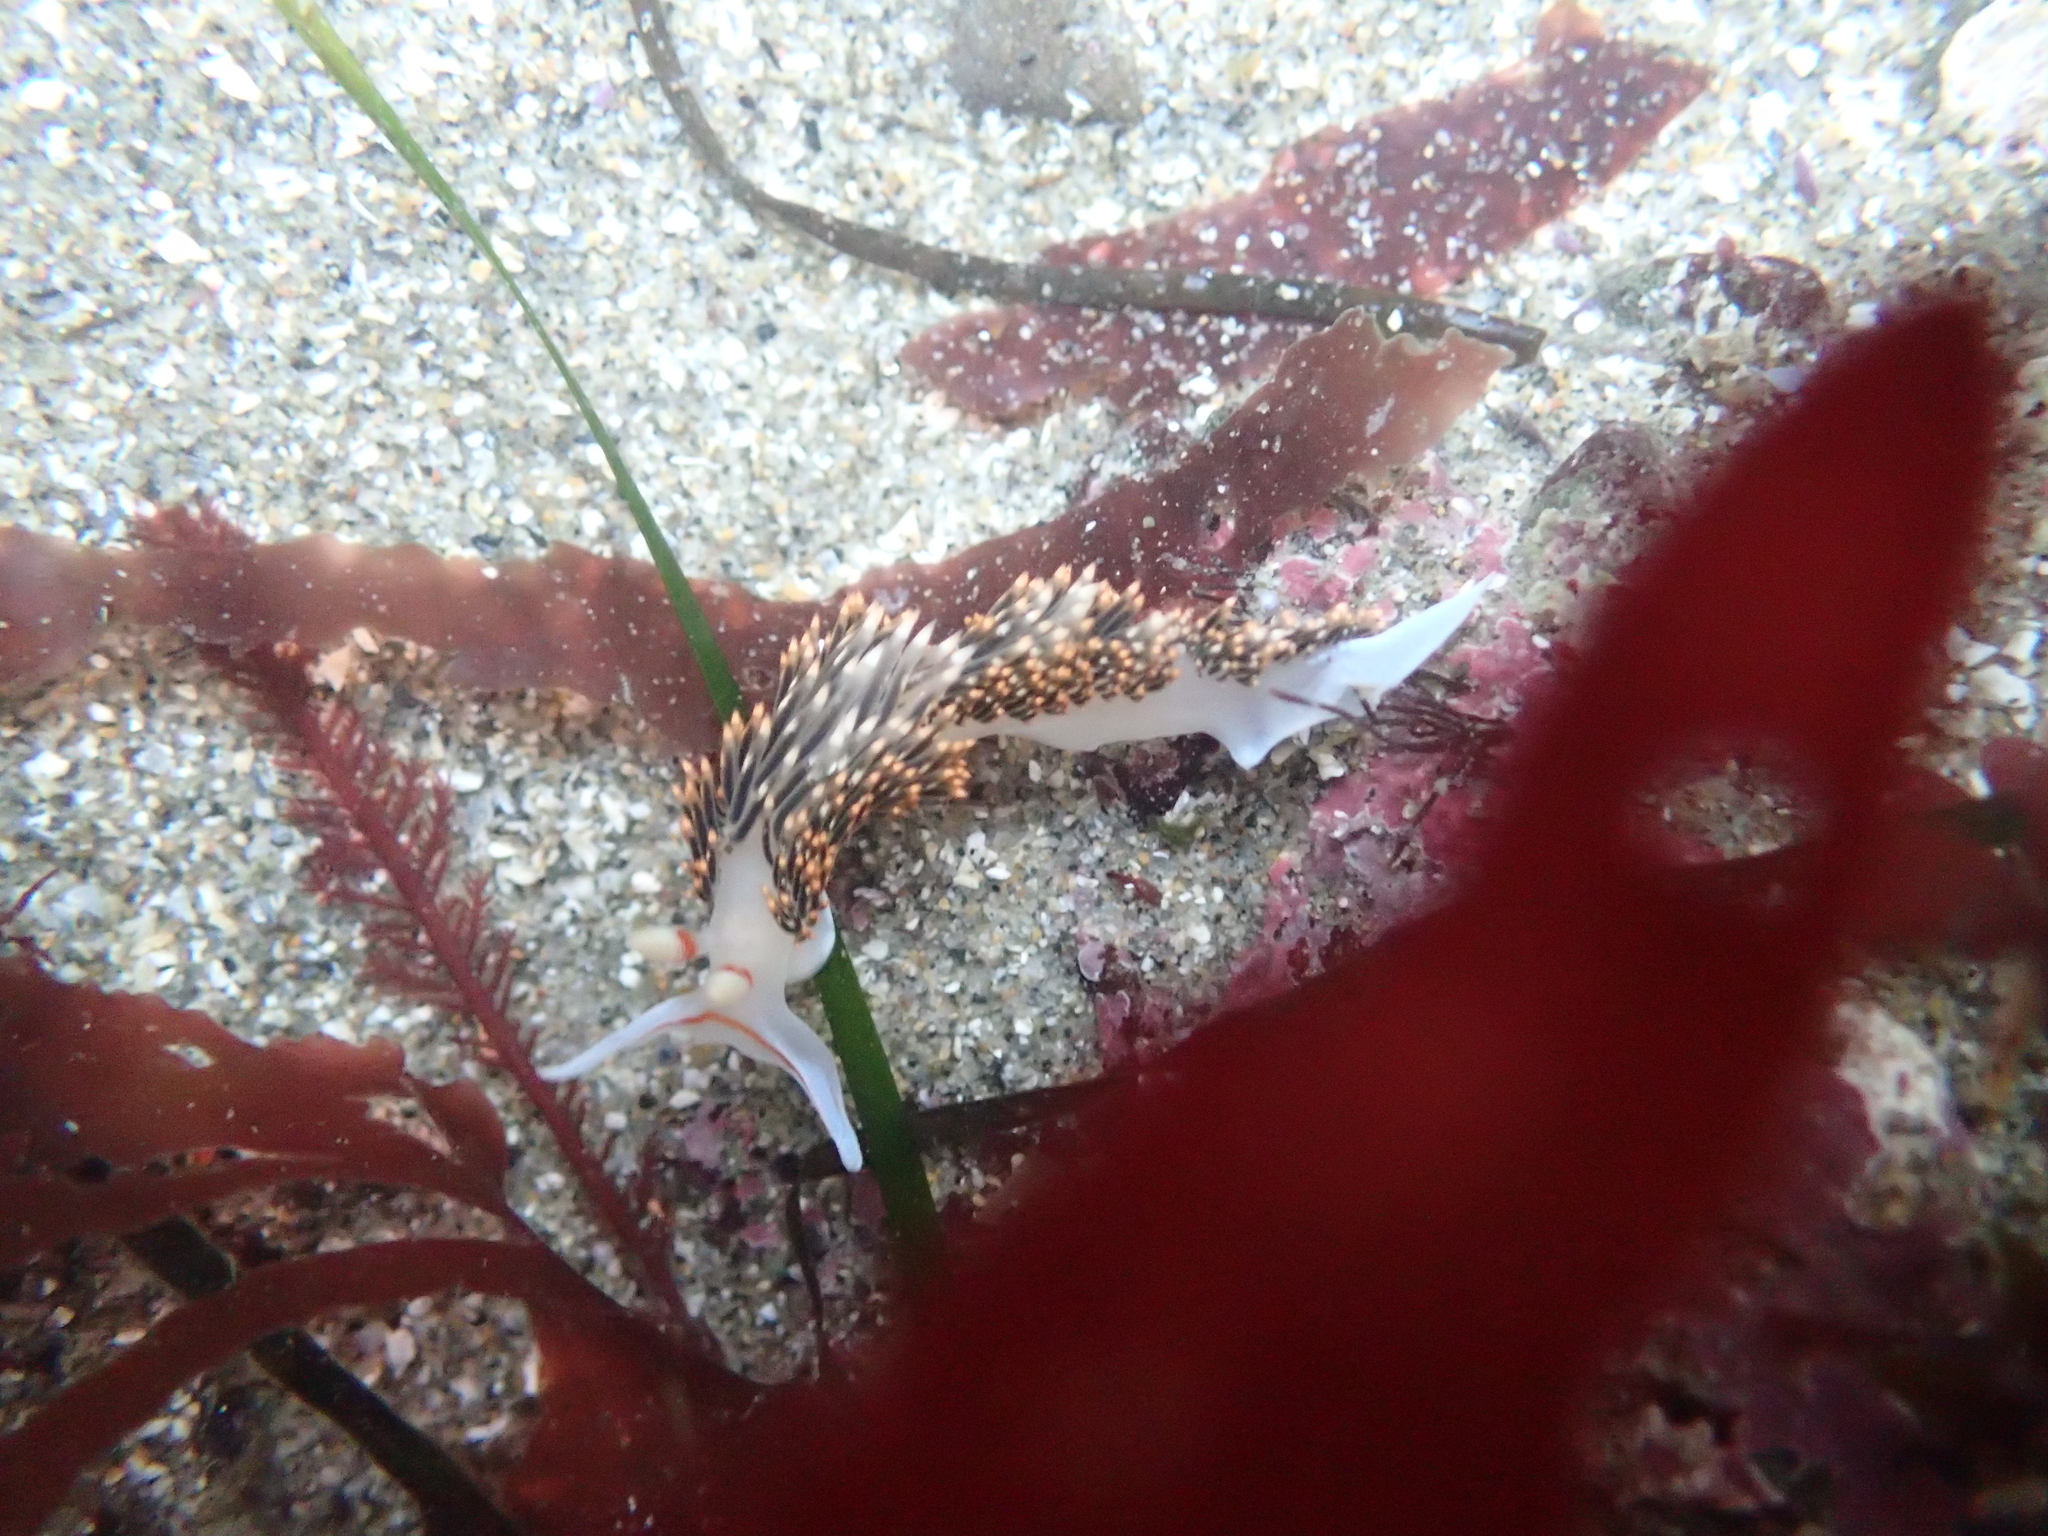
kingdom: Animalia
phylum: Mollusca
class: Gastropoda
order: Nudibranchia
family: Facelinidae
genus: Phidiana
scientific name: Phidiana hiltoni
